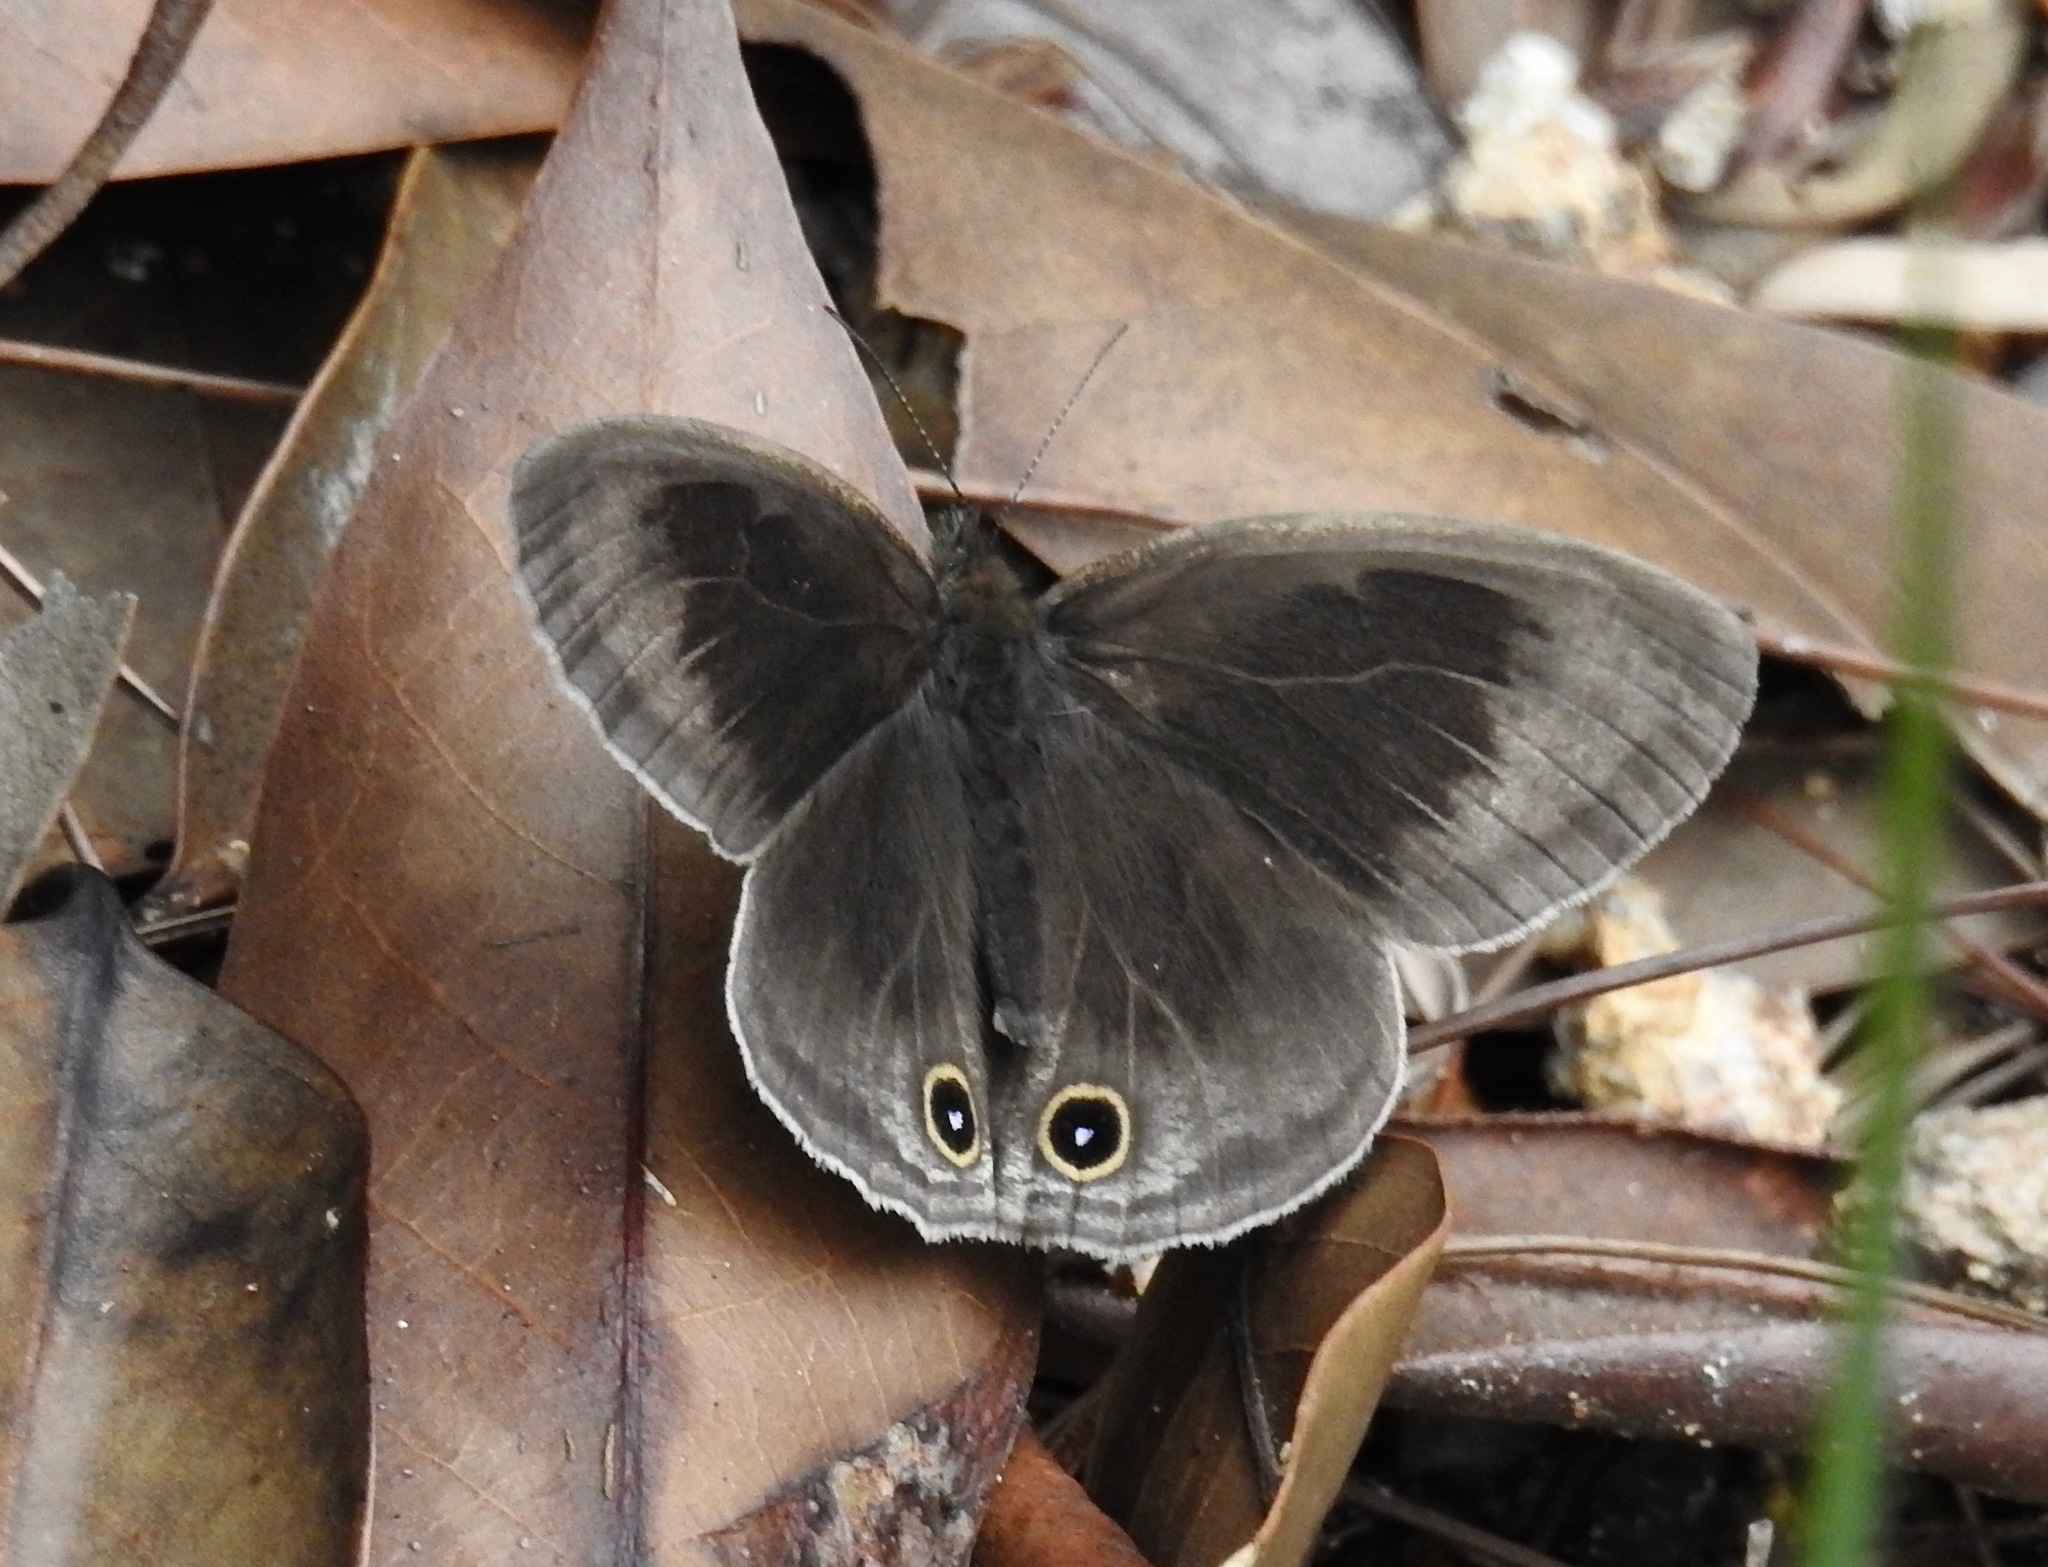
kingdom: Animalia
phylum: Arthropoda
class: Insecta
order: Lepidoptera
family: Nymphalidae
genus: Ypthima
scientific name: Ypthima multistriata
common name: Striated ringlet
